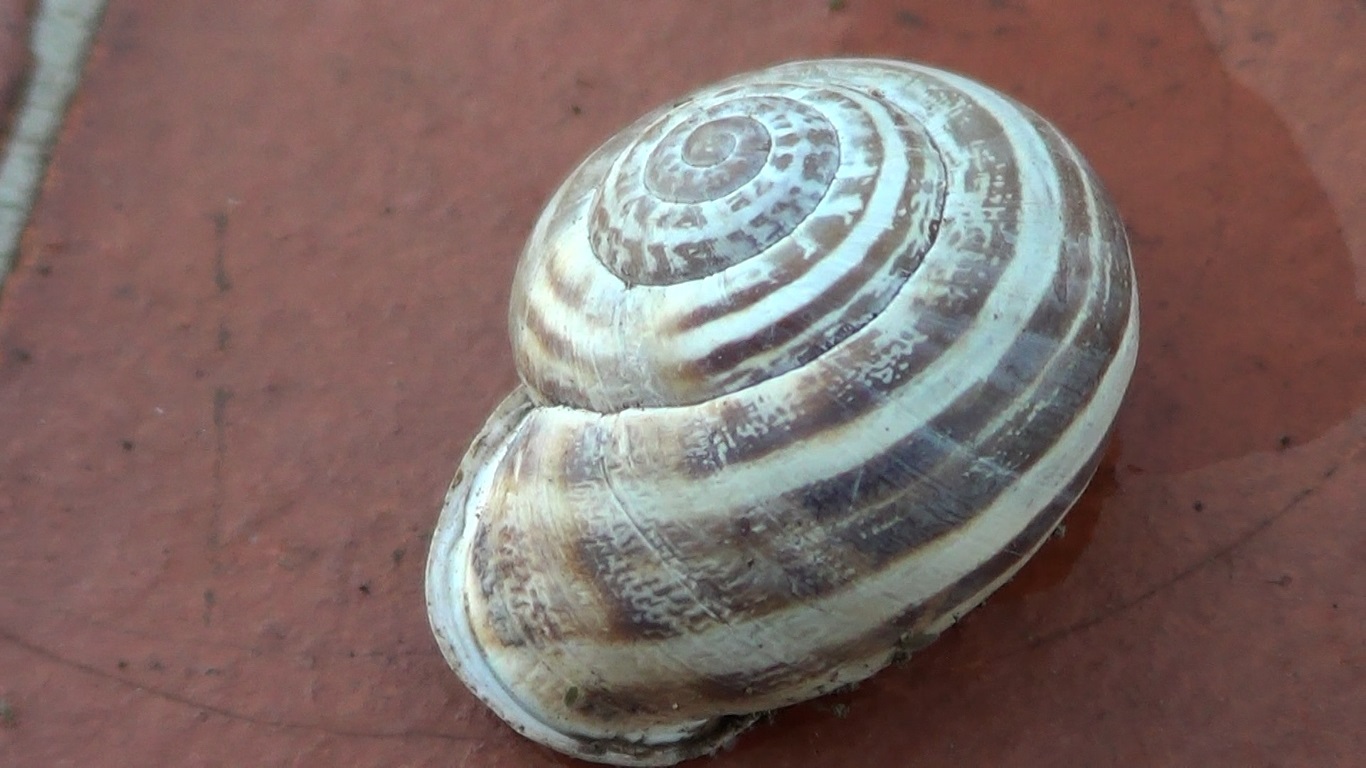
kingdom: Animalia
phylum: Mollusca
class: Gastropoda
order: Stylommatophora
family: Helicidae
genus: Eobania
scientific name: Eobania vermiculata
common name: Chocolateband snail
